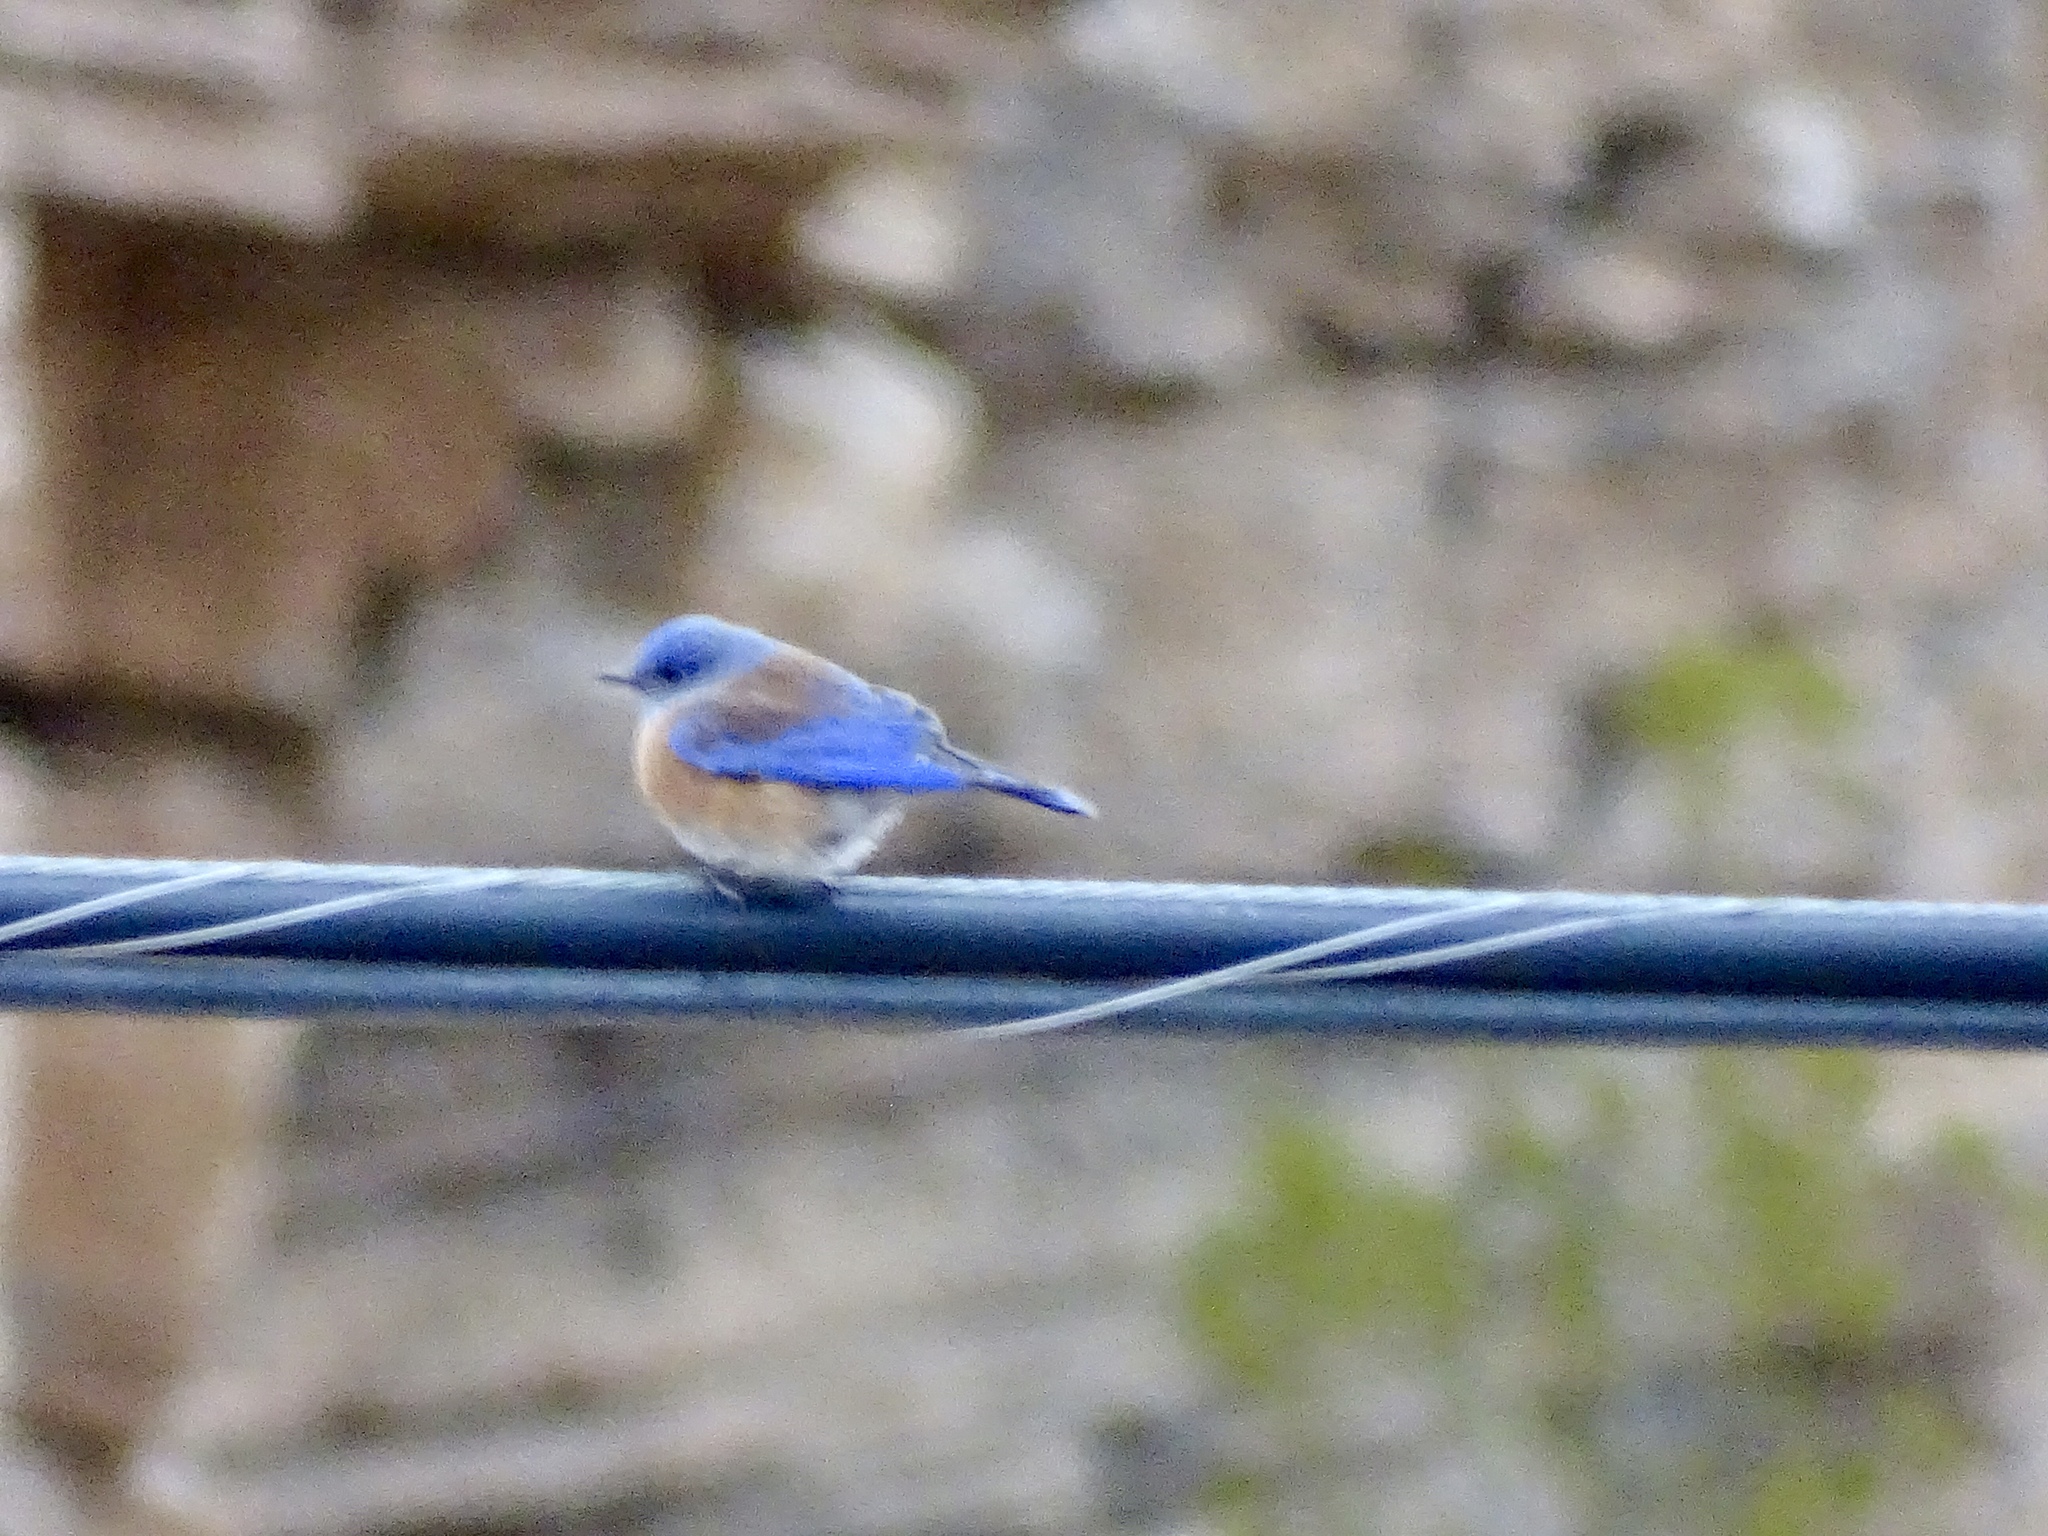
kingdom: Animalia
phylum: Chordata
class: Aves
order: Passeriformes
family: Turdidae
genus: Sialia
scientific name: Sialia mexicana
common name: Western bluebird
